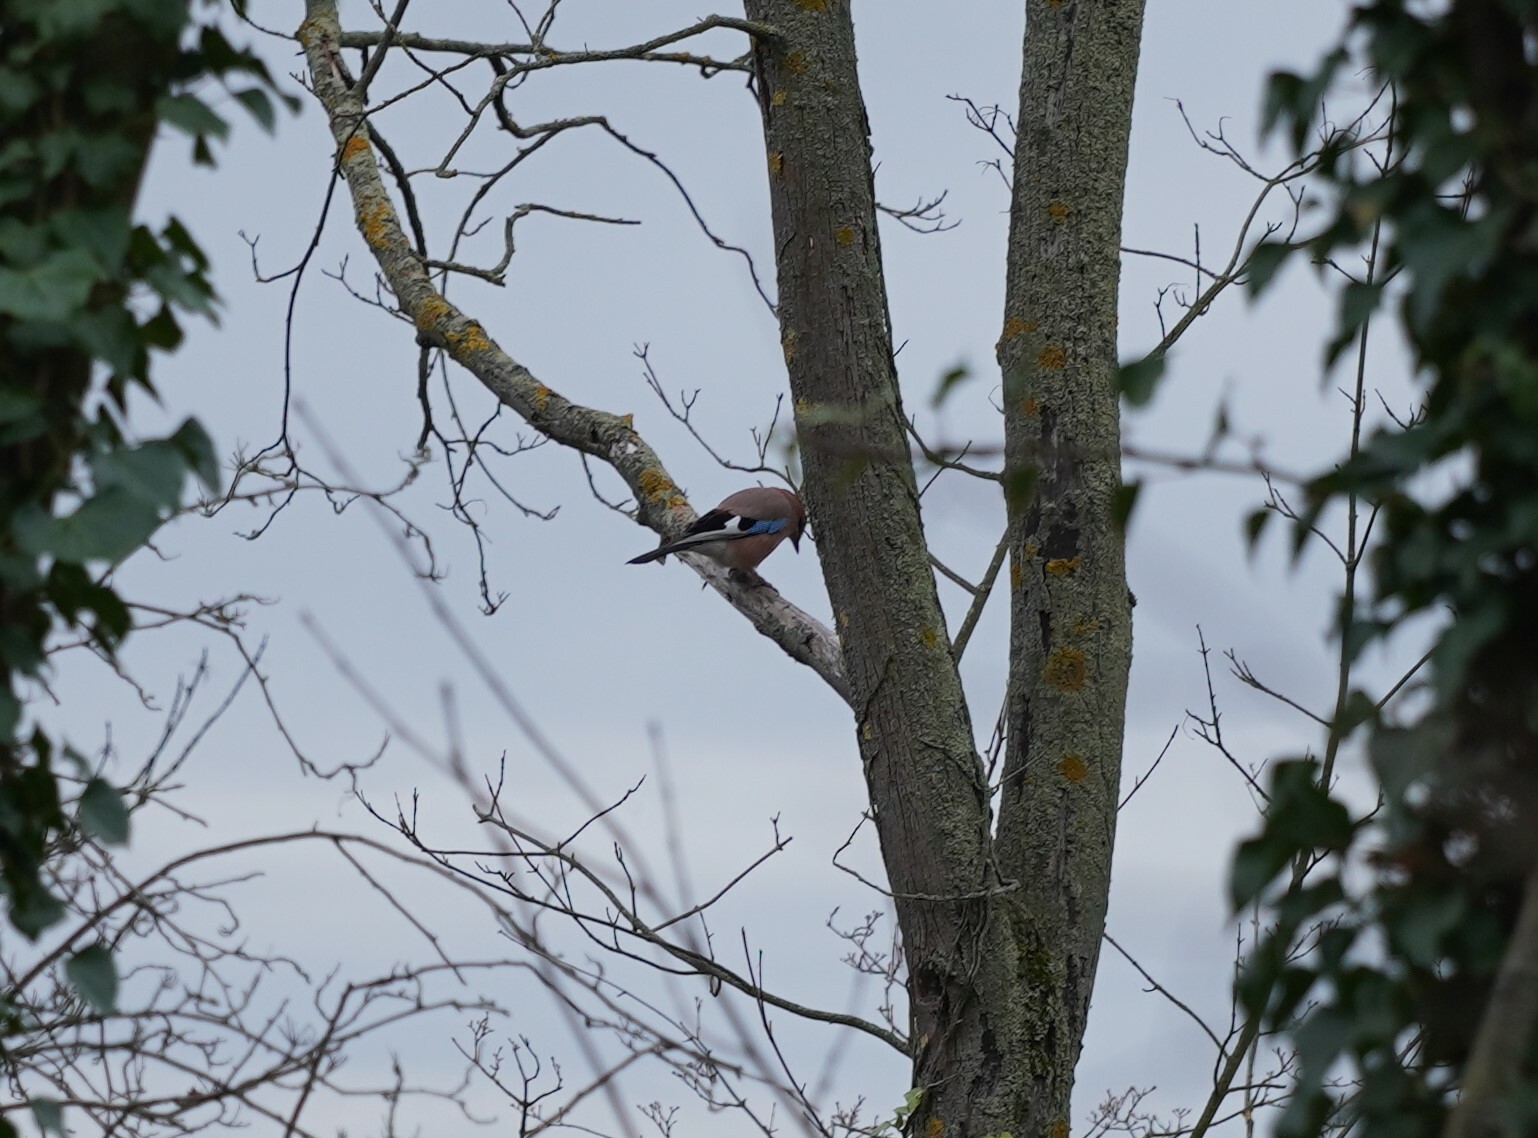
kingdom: Animalia
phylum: Chordata
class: Aves
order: Passeriformes
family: Corvidae
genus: Garrulus
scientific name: Garrulus glandarius
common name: Eurasian jay
